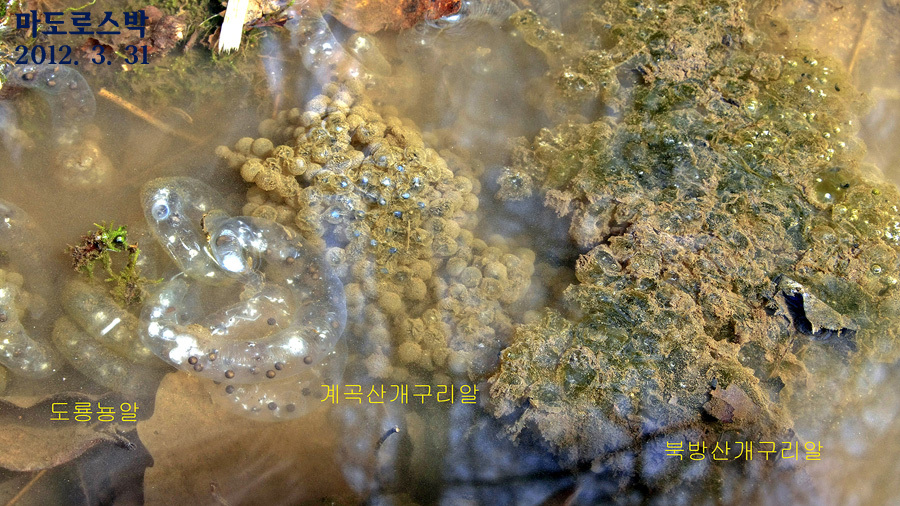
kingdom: Animalia
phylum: Chordata
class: Amphibia
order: Anura
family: Ranidae
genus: Rana
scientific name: Rana huanrenensis
